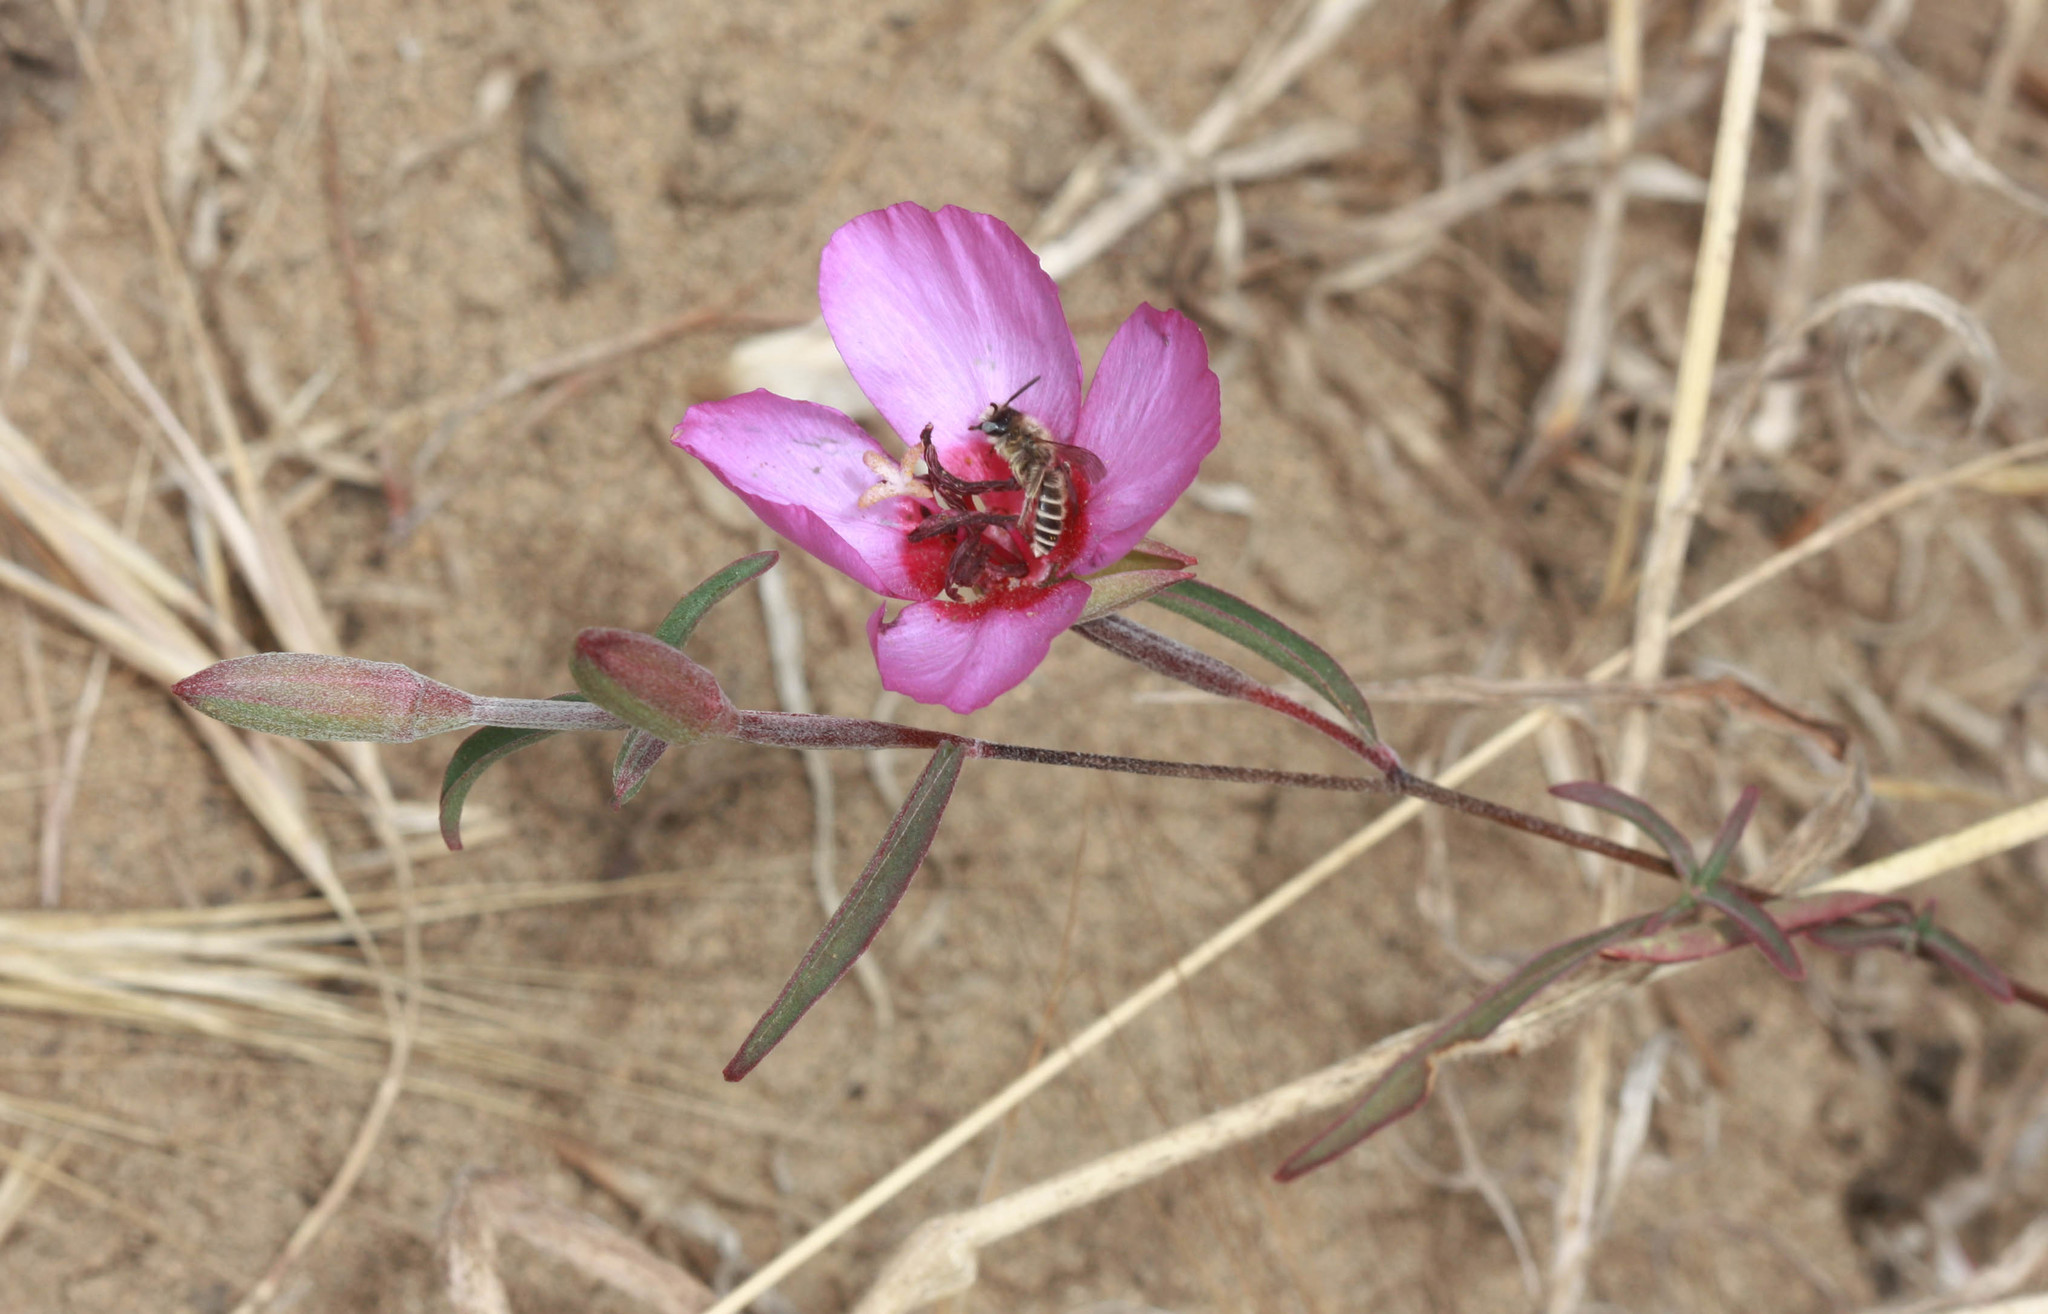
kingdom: Plantae
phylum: Tracheophyta
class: Magnoliopsida
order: Myrtales
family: Onagraceae
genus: Clarkia
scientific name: Clarkia rubicunda
